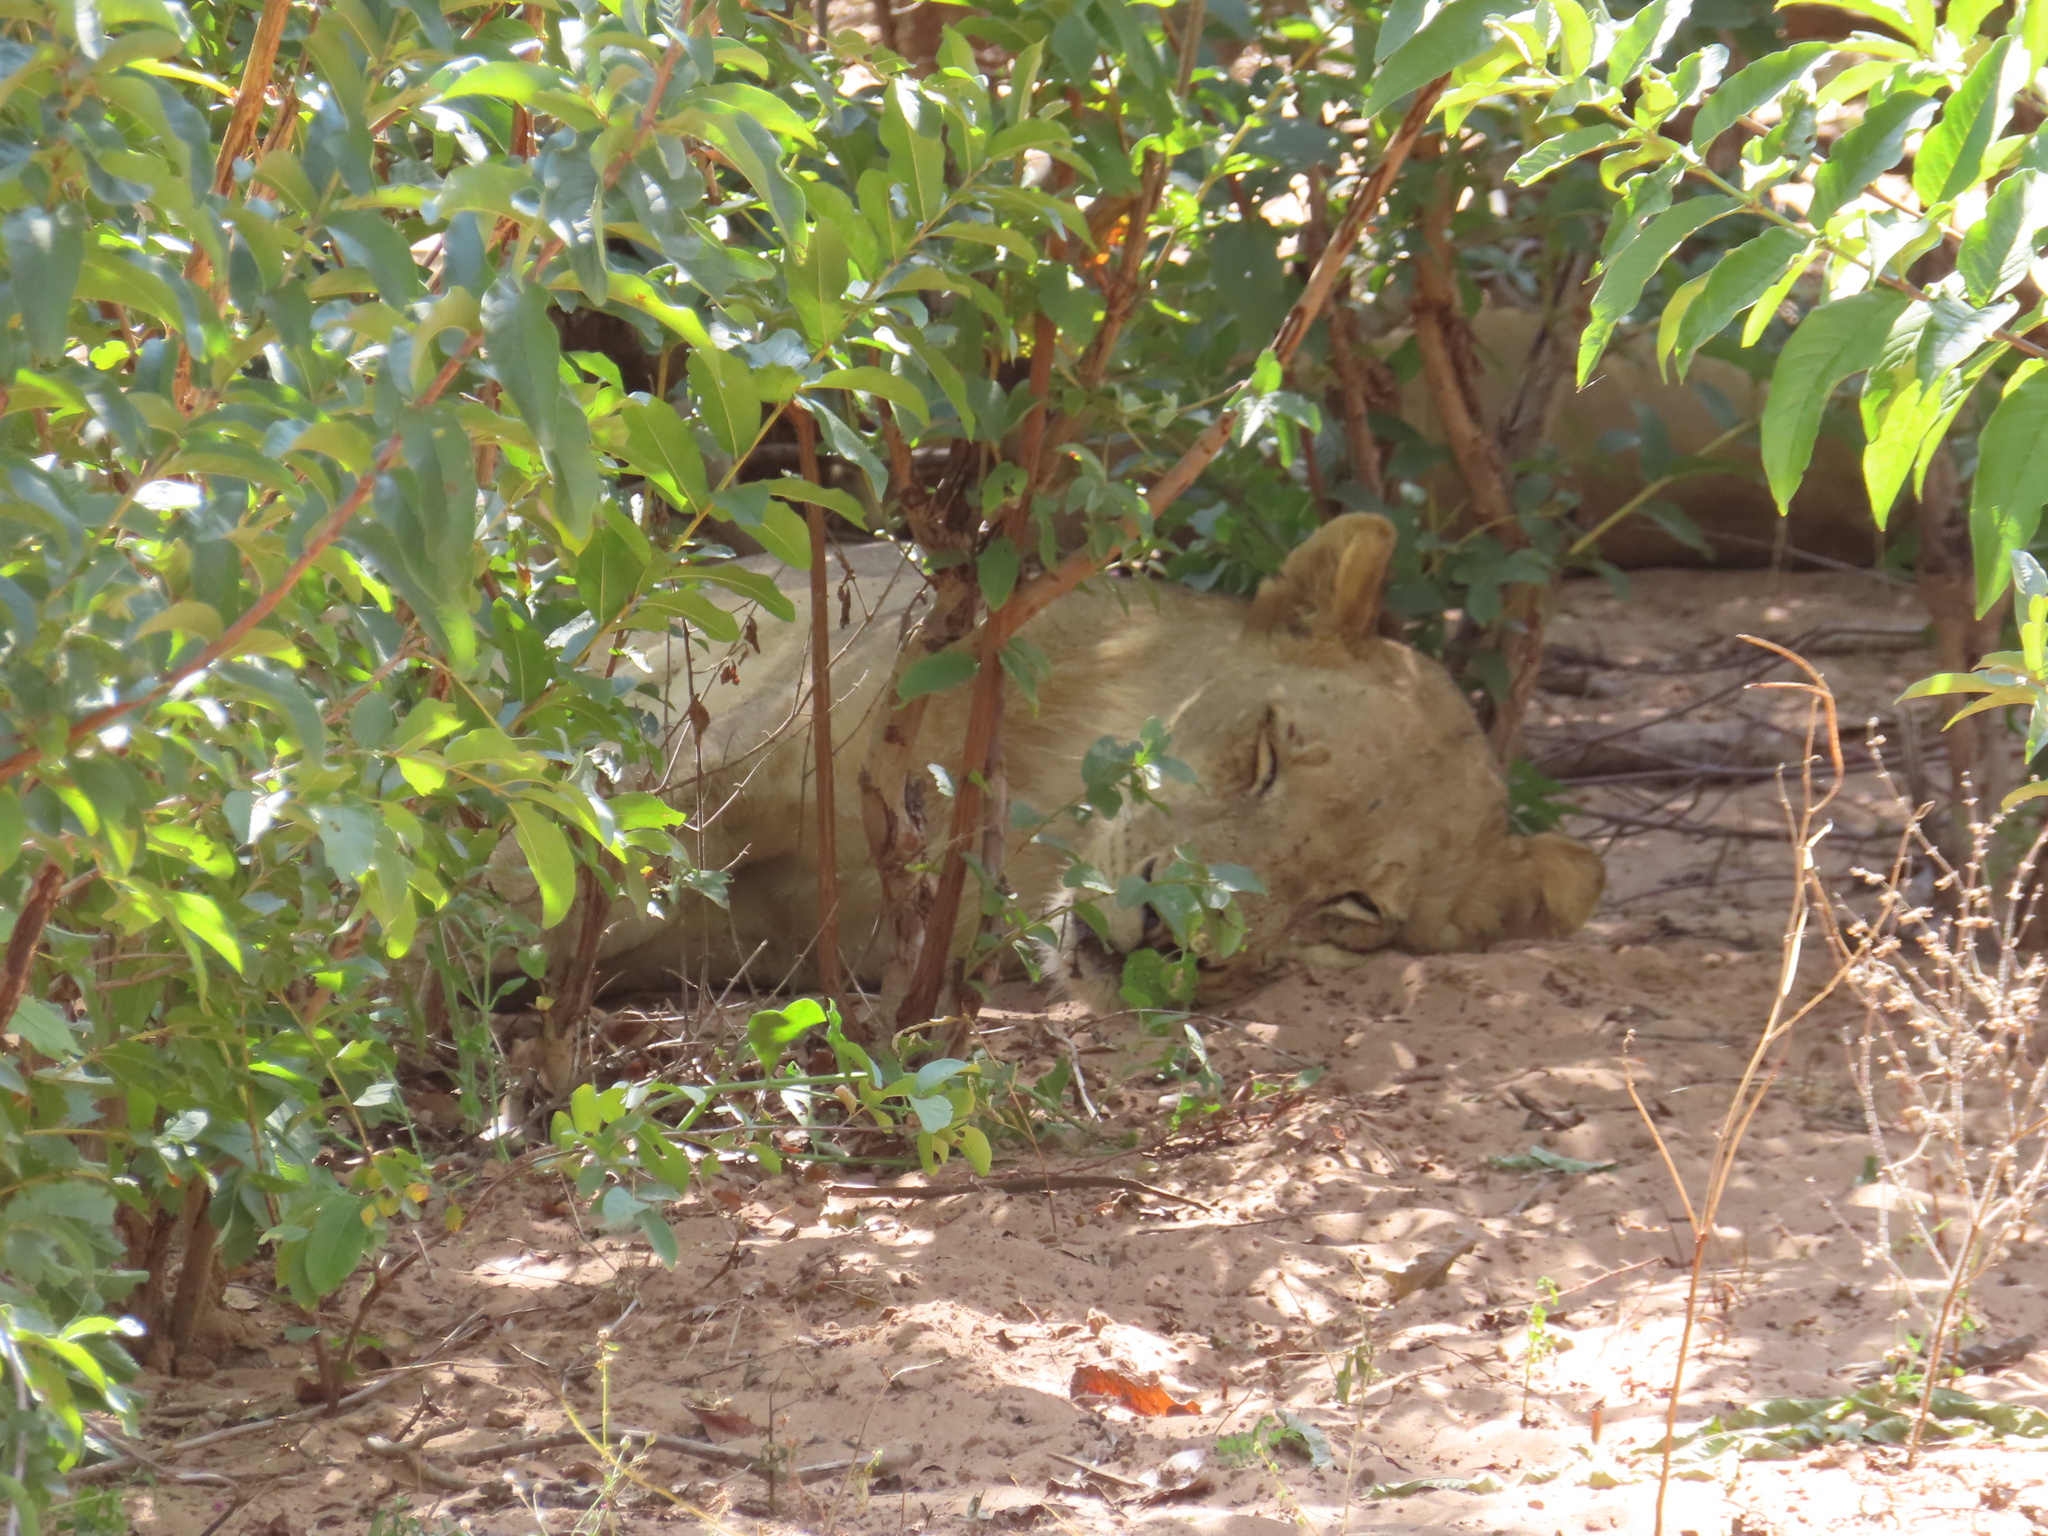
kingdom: Animalia
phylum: Chordata
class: Mammalia
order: Carnivora
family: Felidae
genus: Panthera
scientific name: Panthera leo
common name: Lion
